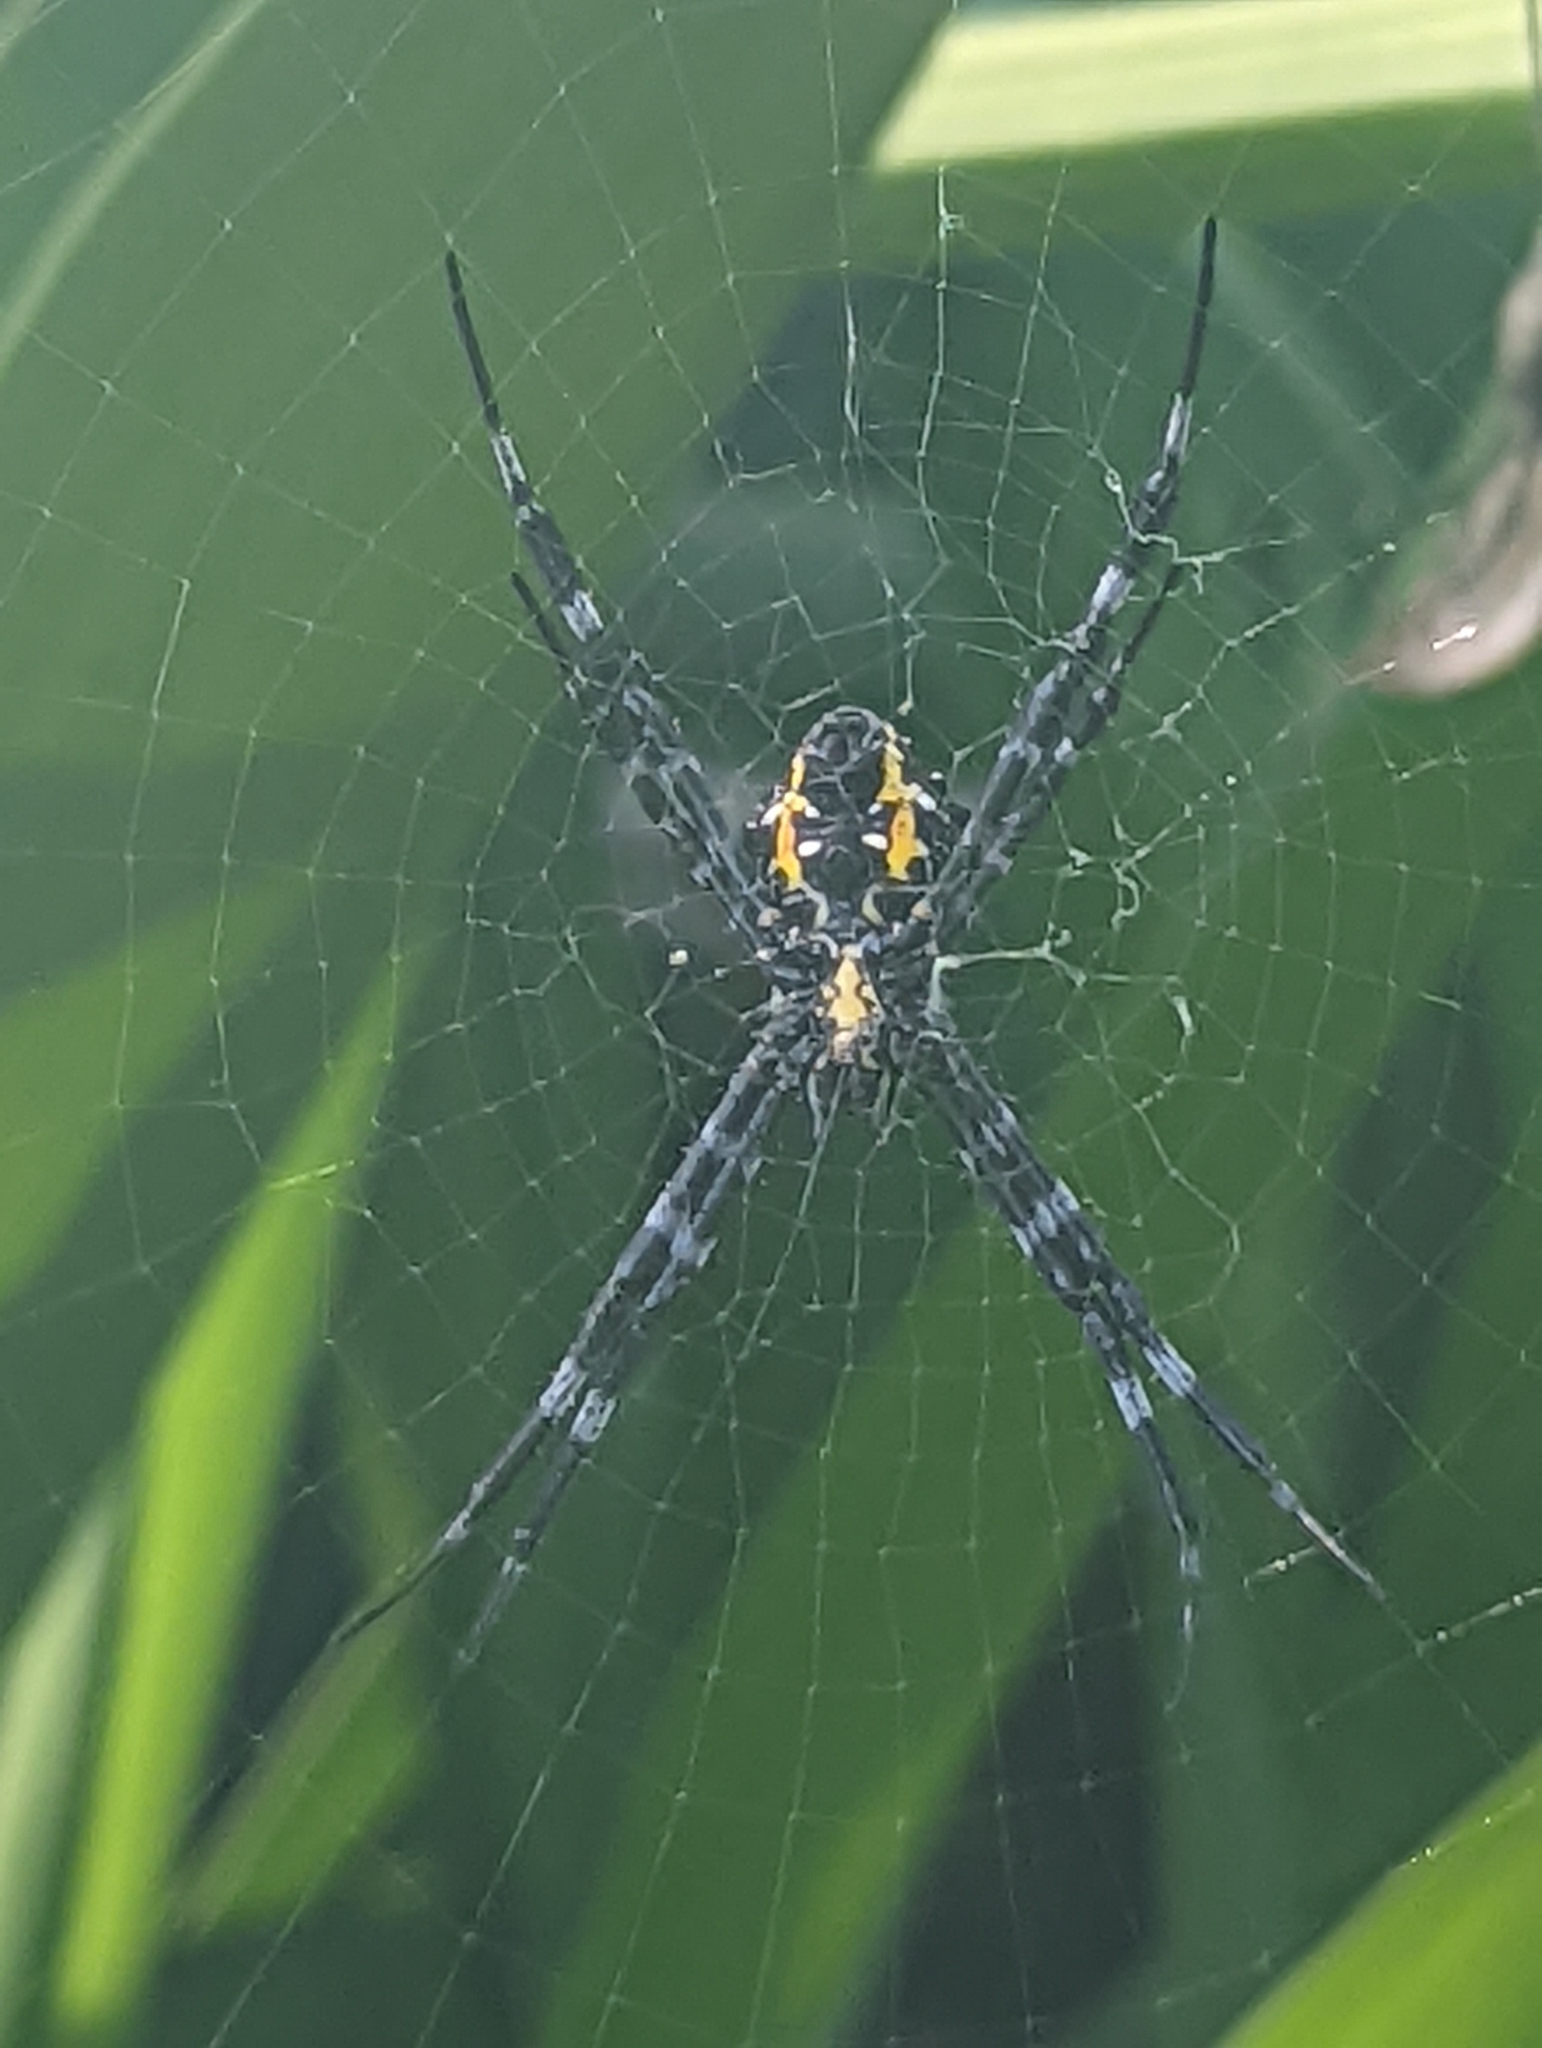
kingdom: Animalia
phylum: Arthropoda
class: Arachnida
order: Araneae
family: Araneidae
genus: Argiope
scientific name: Argiope appensa
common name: Garden spider
